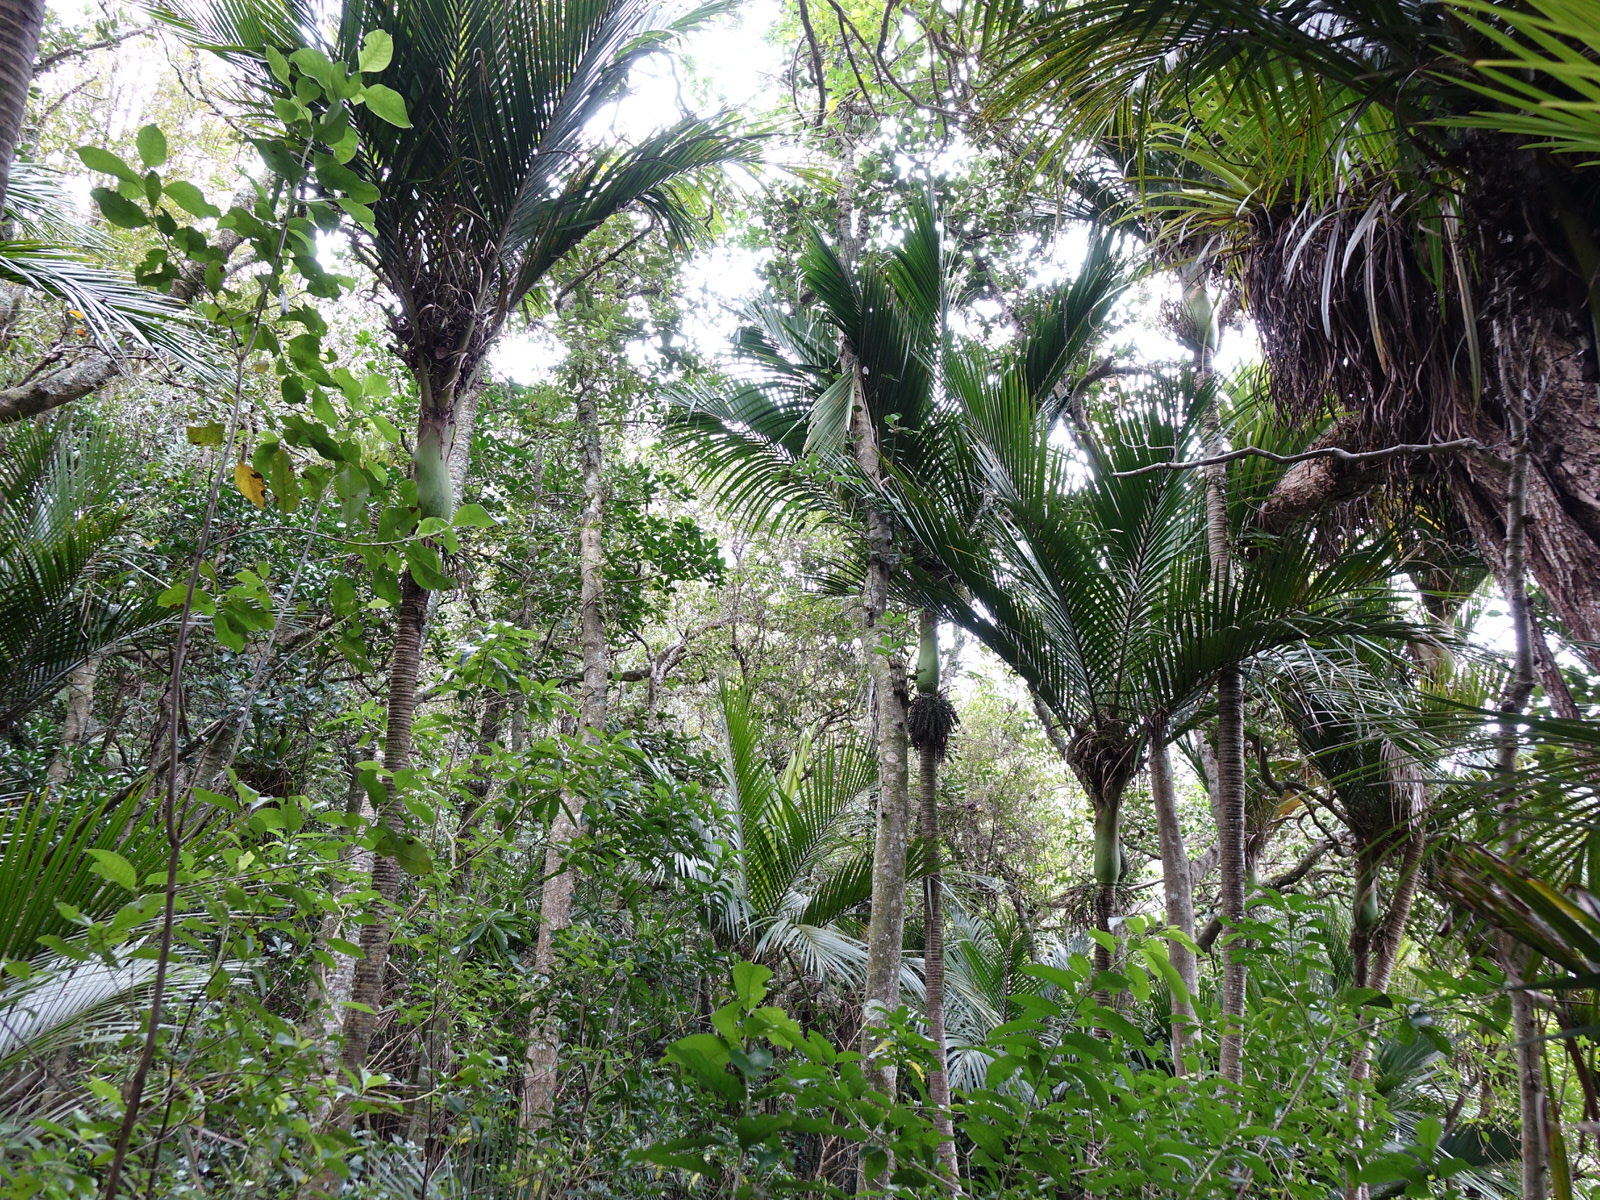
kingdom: Plantae
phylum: Tracheophyta
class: Liliopsida
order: Arecales
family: Arecaceae
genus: Rhopalostylis
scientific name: Rhopalostylis sapida
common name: Feather-duster palm
